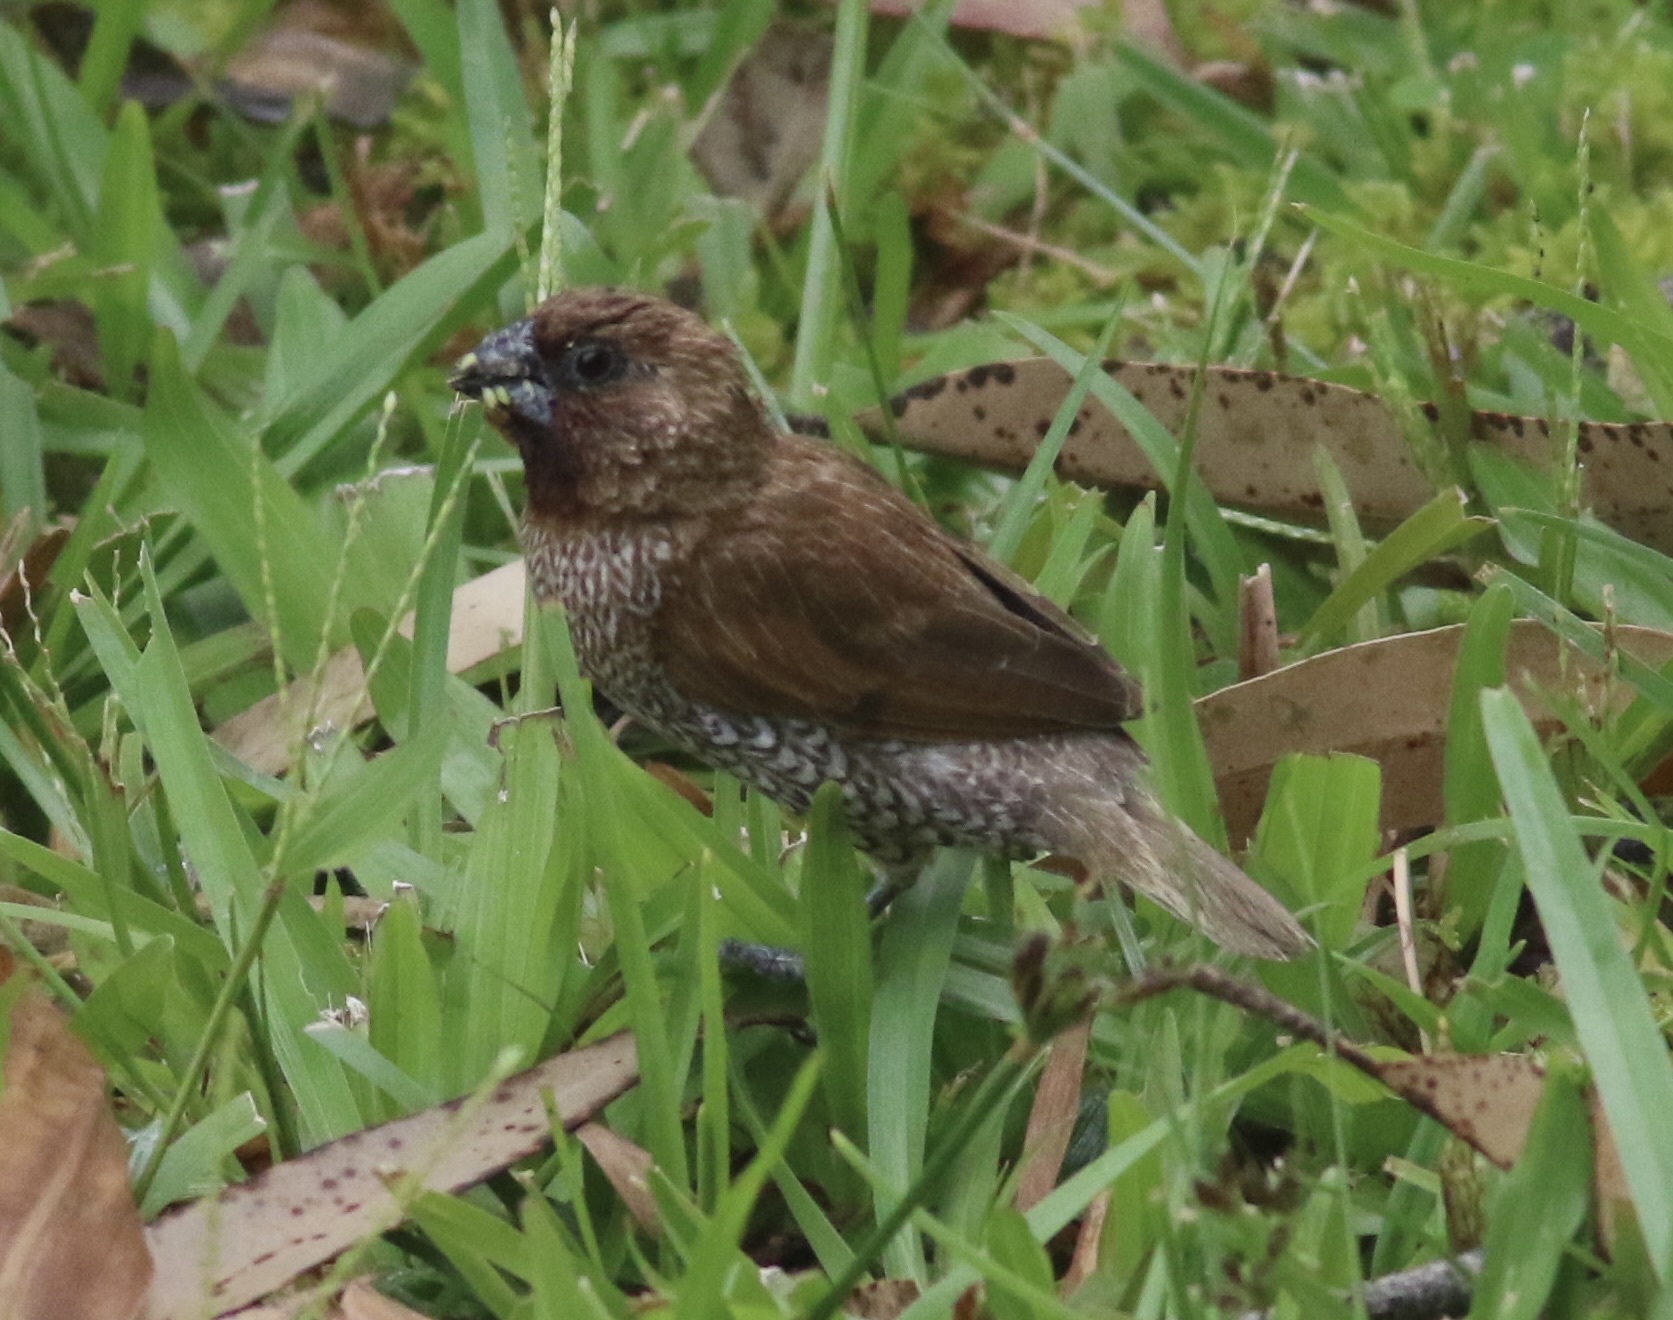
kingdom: Animalia
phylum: Chordata
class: Aves
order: Passeriformes
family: Estrildidae
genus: Lonchura
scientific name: Lonchura punctulata
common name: Scaly-breasted munia
